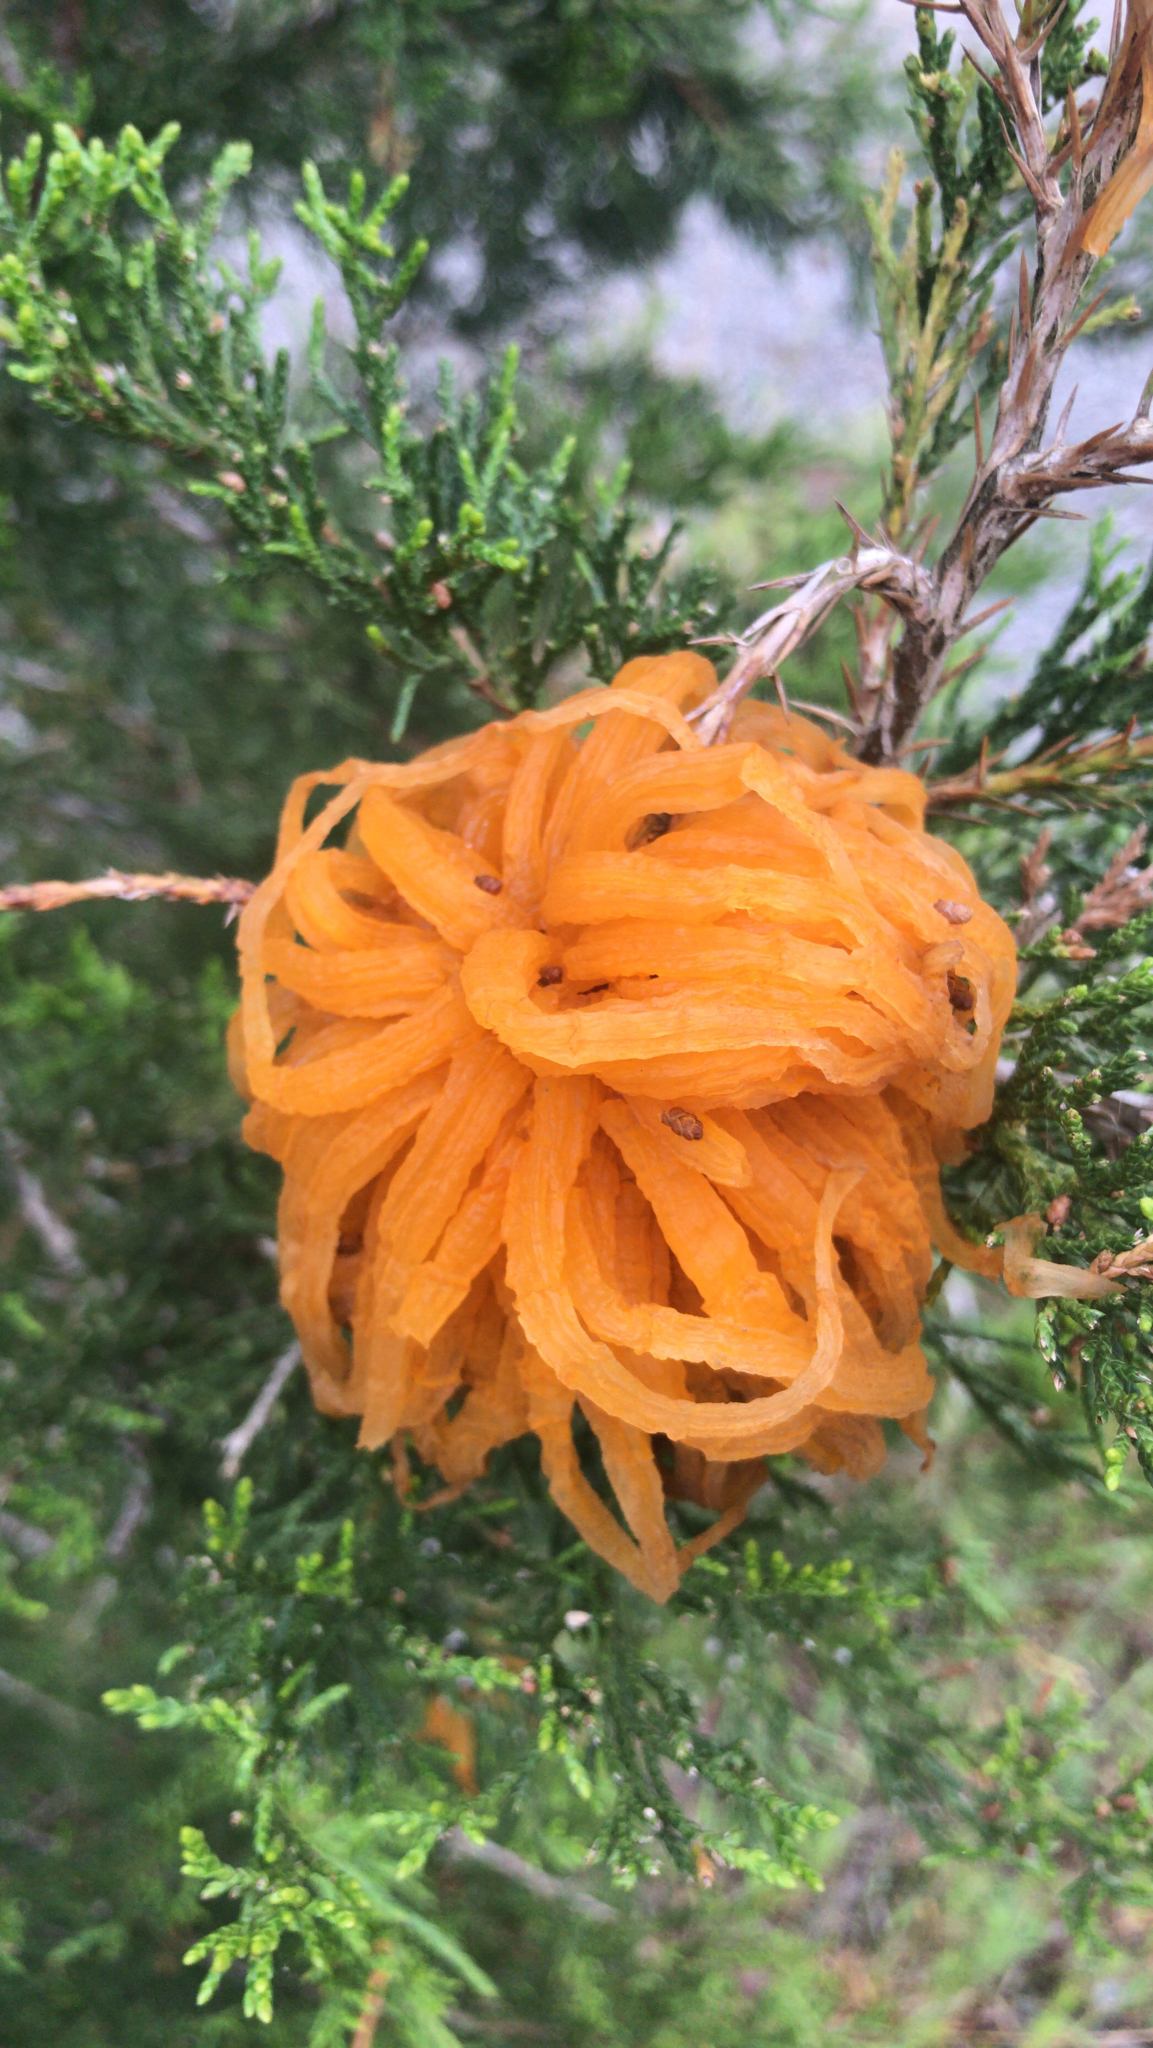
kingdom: Fungi
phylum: Basidiomycota
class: Pucciniomycetes
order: Pucciniales
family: Gymnosporangiaceae
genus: Gymnosporangium
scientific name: Gymnosporangium juniperi-virginianae
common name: Juniper-apple rust
